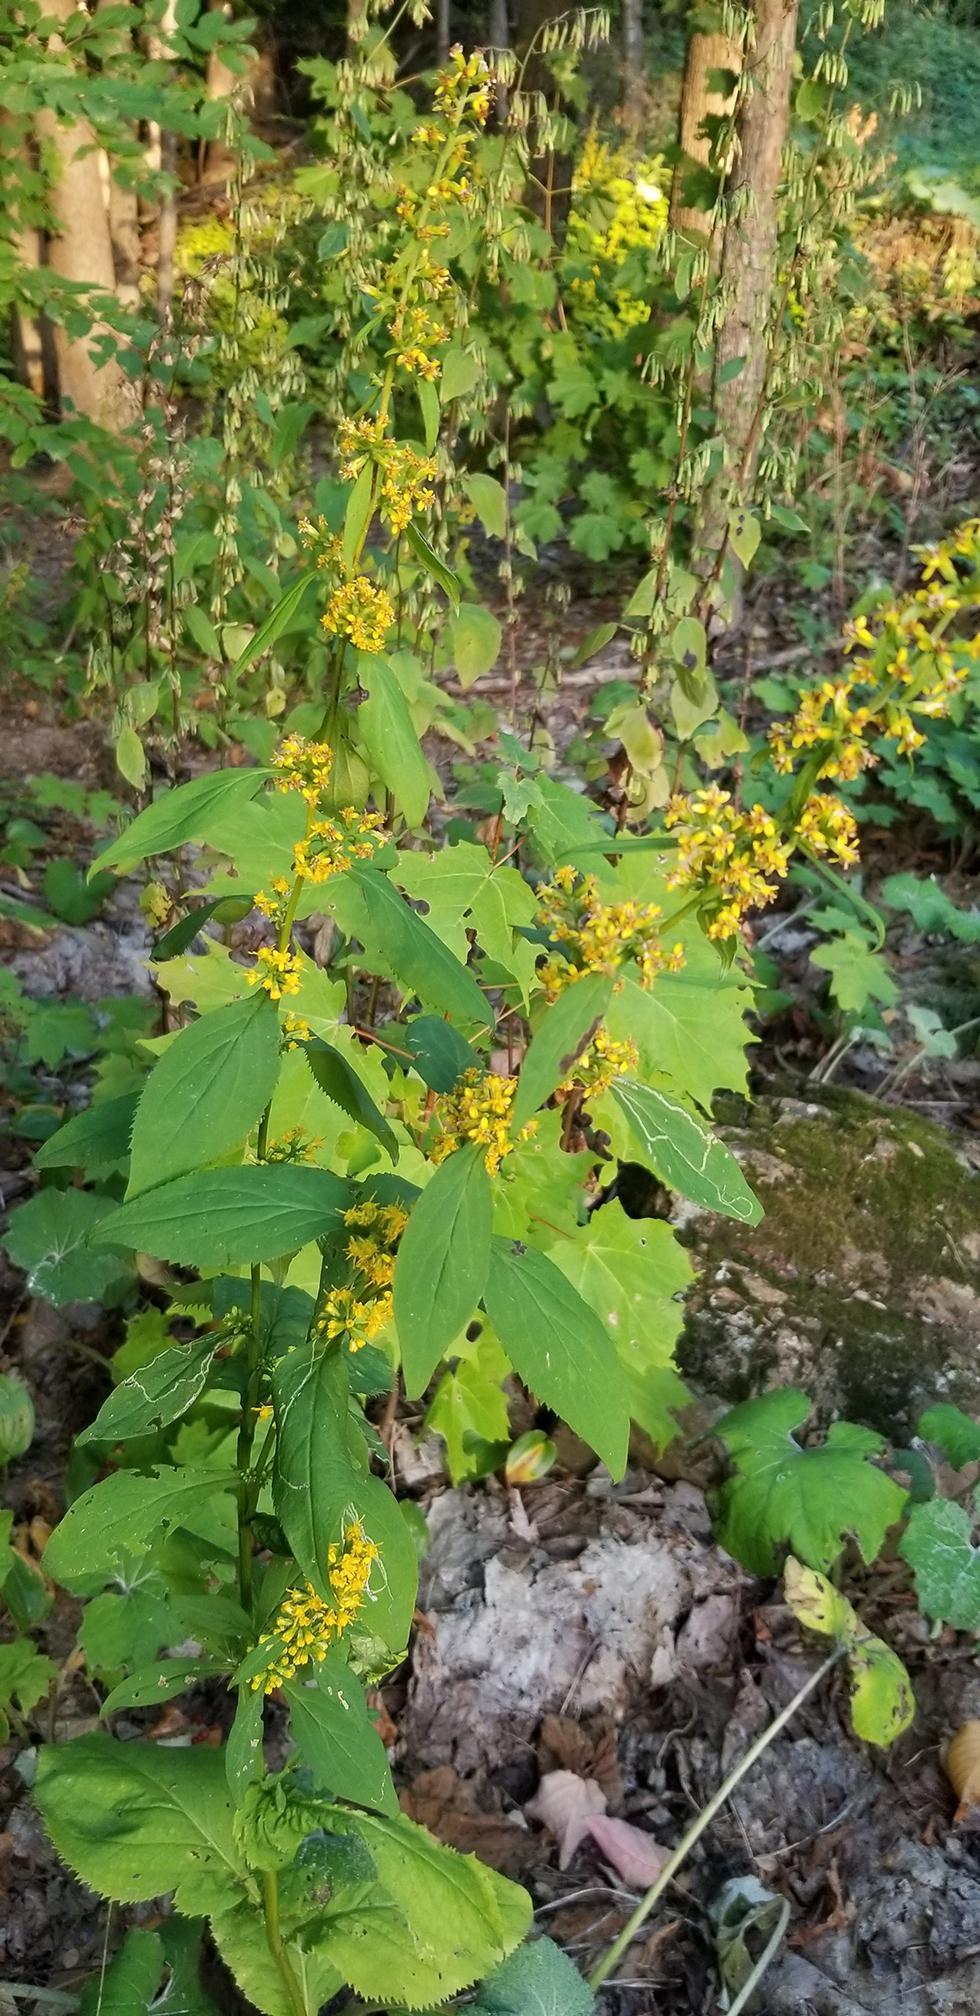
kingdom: Plantae
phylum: Tracheophyta
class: Magnoliopsida
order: Asterales
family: Asteraceae
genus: Solidago
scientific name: Solidago flexicaulis
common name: Zig-zag goldenrod
